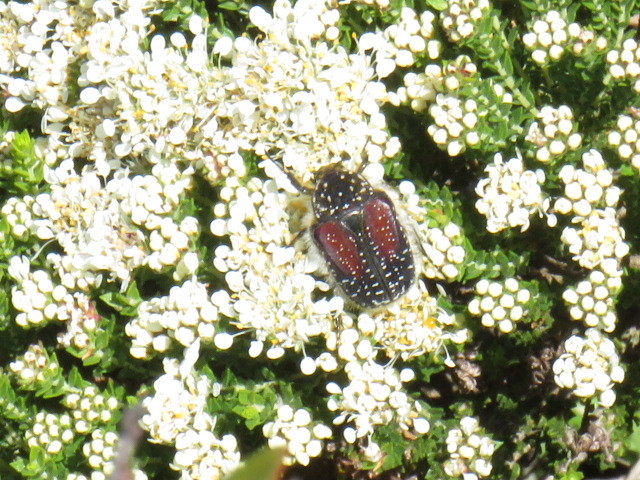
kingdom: Animalia
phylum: Arthropoda
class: Insecta
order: Coleoptera
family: Scarabaeidae
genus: Trichostetha
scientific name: Trichostetha bicolor
